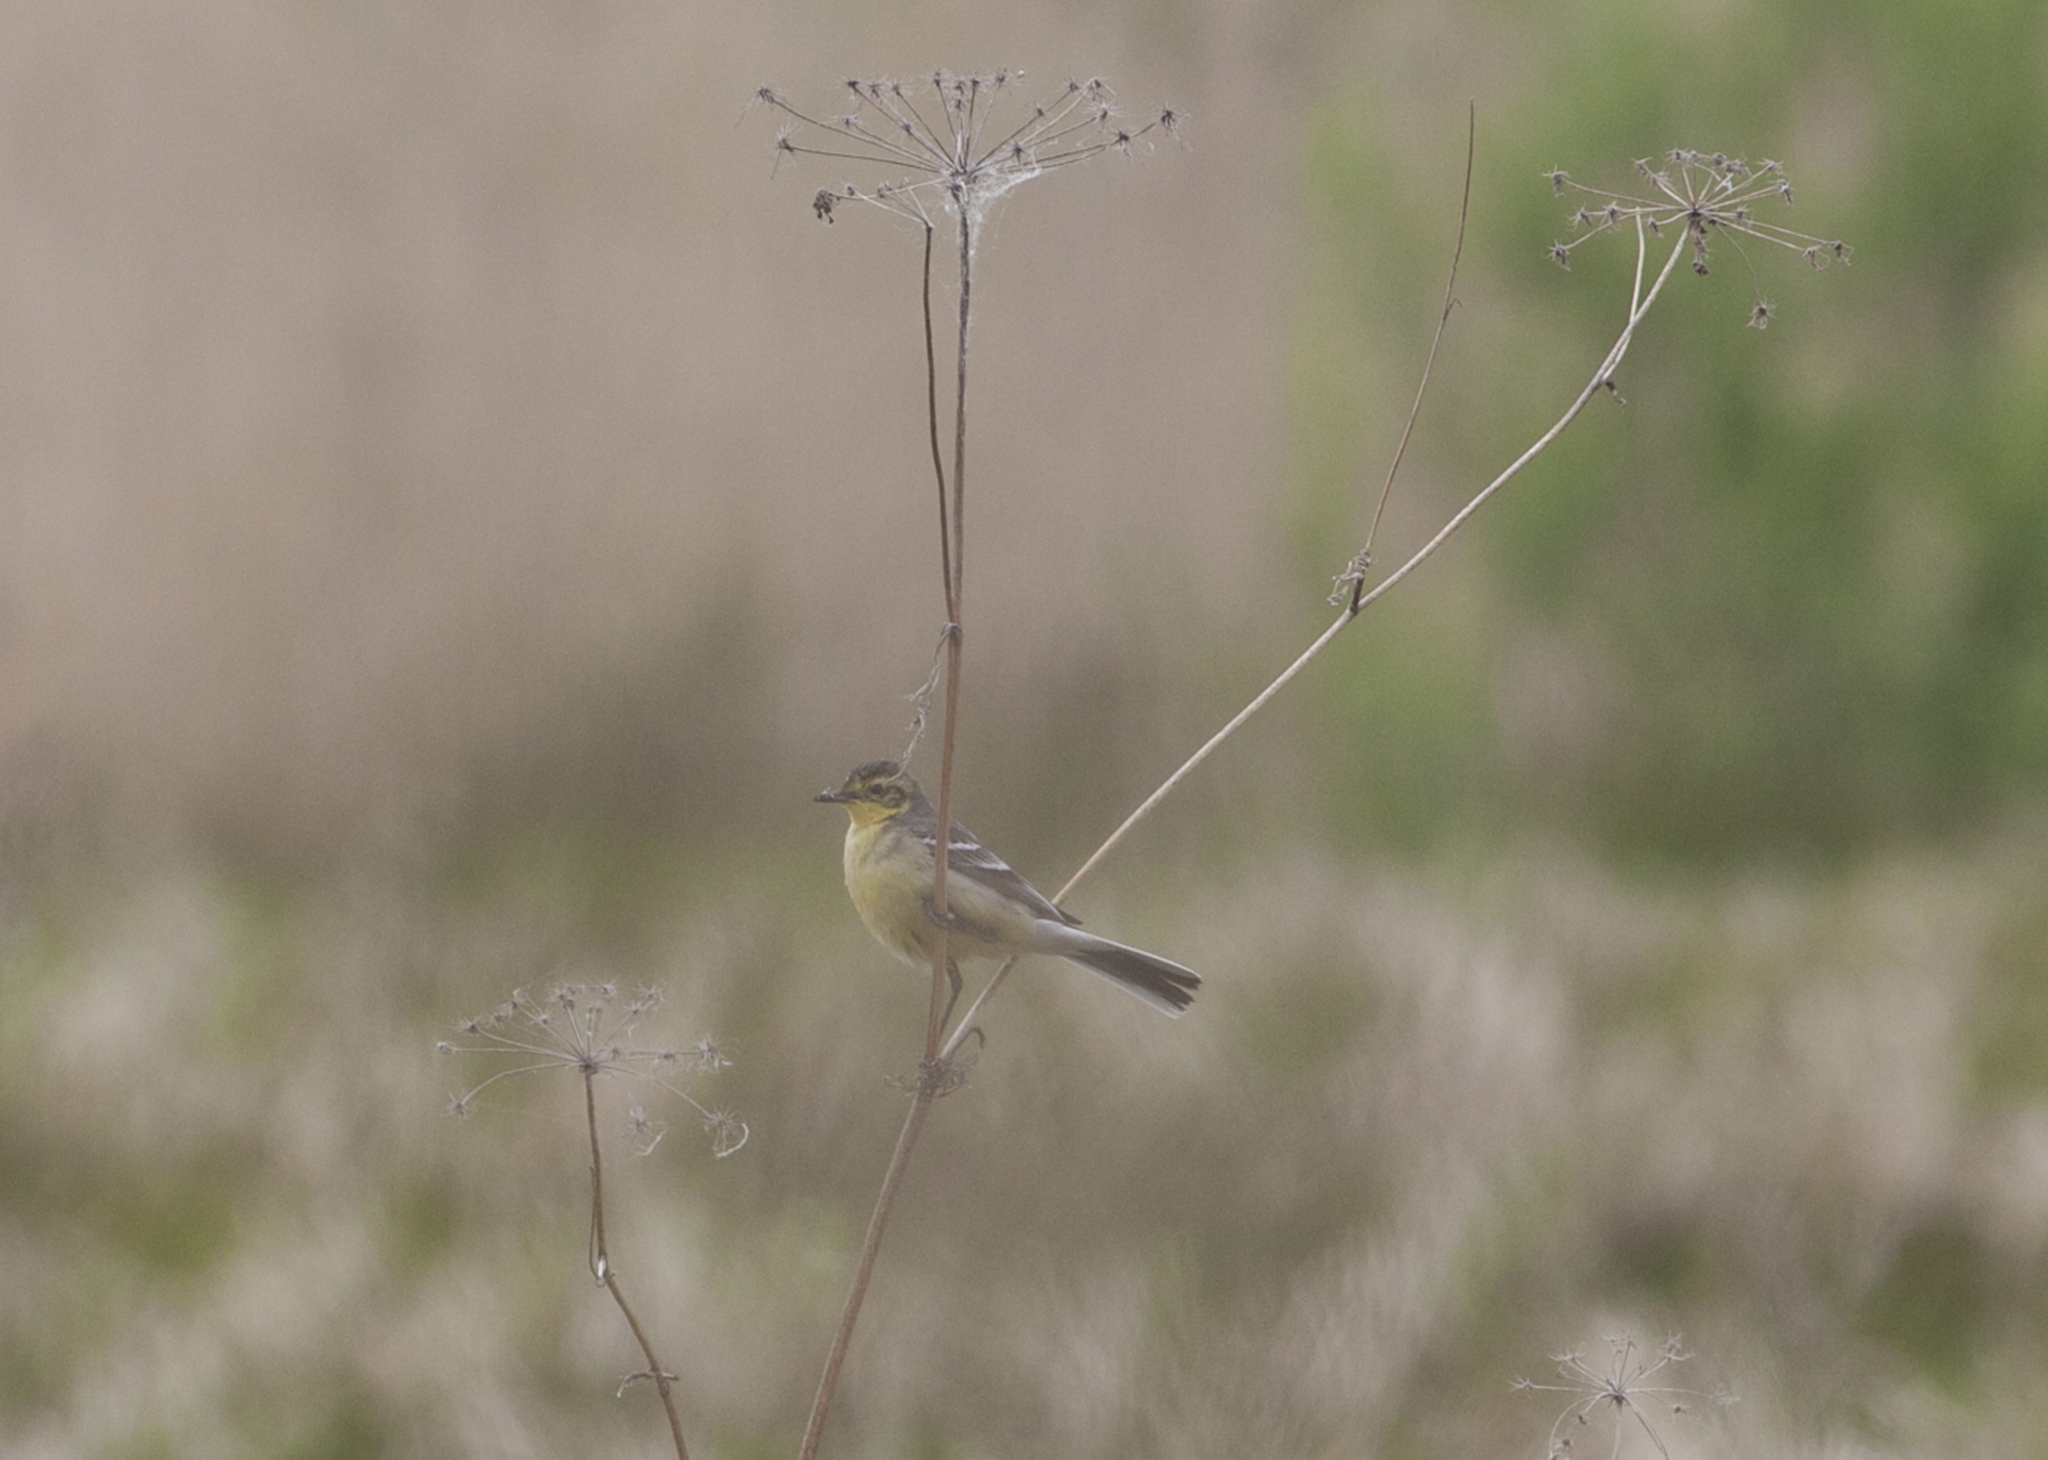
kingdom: Animalia
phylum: Chordata
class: Aves
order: Passeriformes
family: Motacillidae
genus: Motacilla
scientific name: Motacilla citreola
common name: Citrine wagtail
